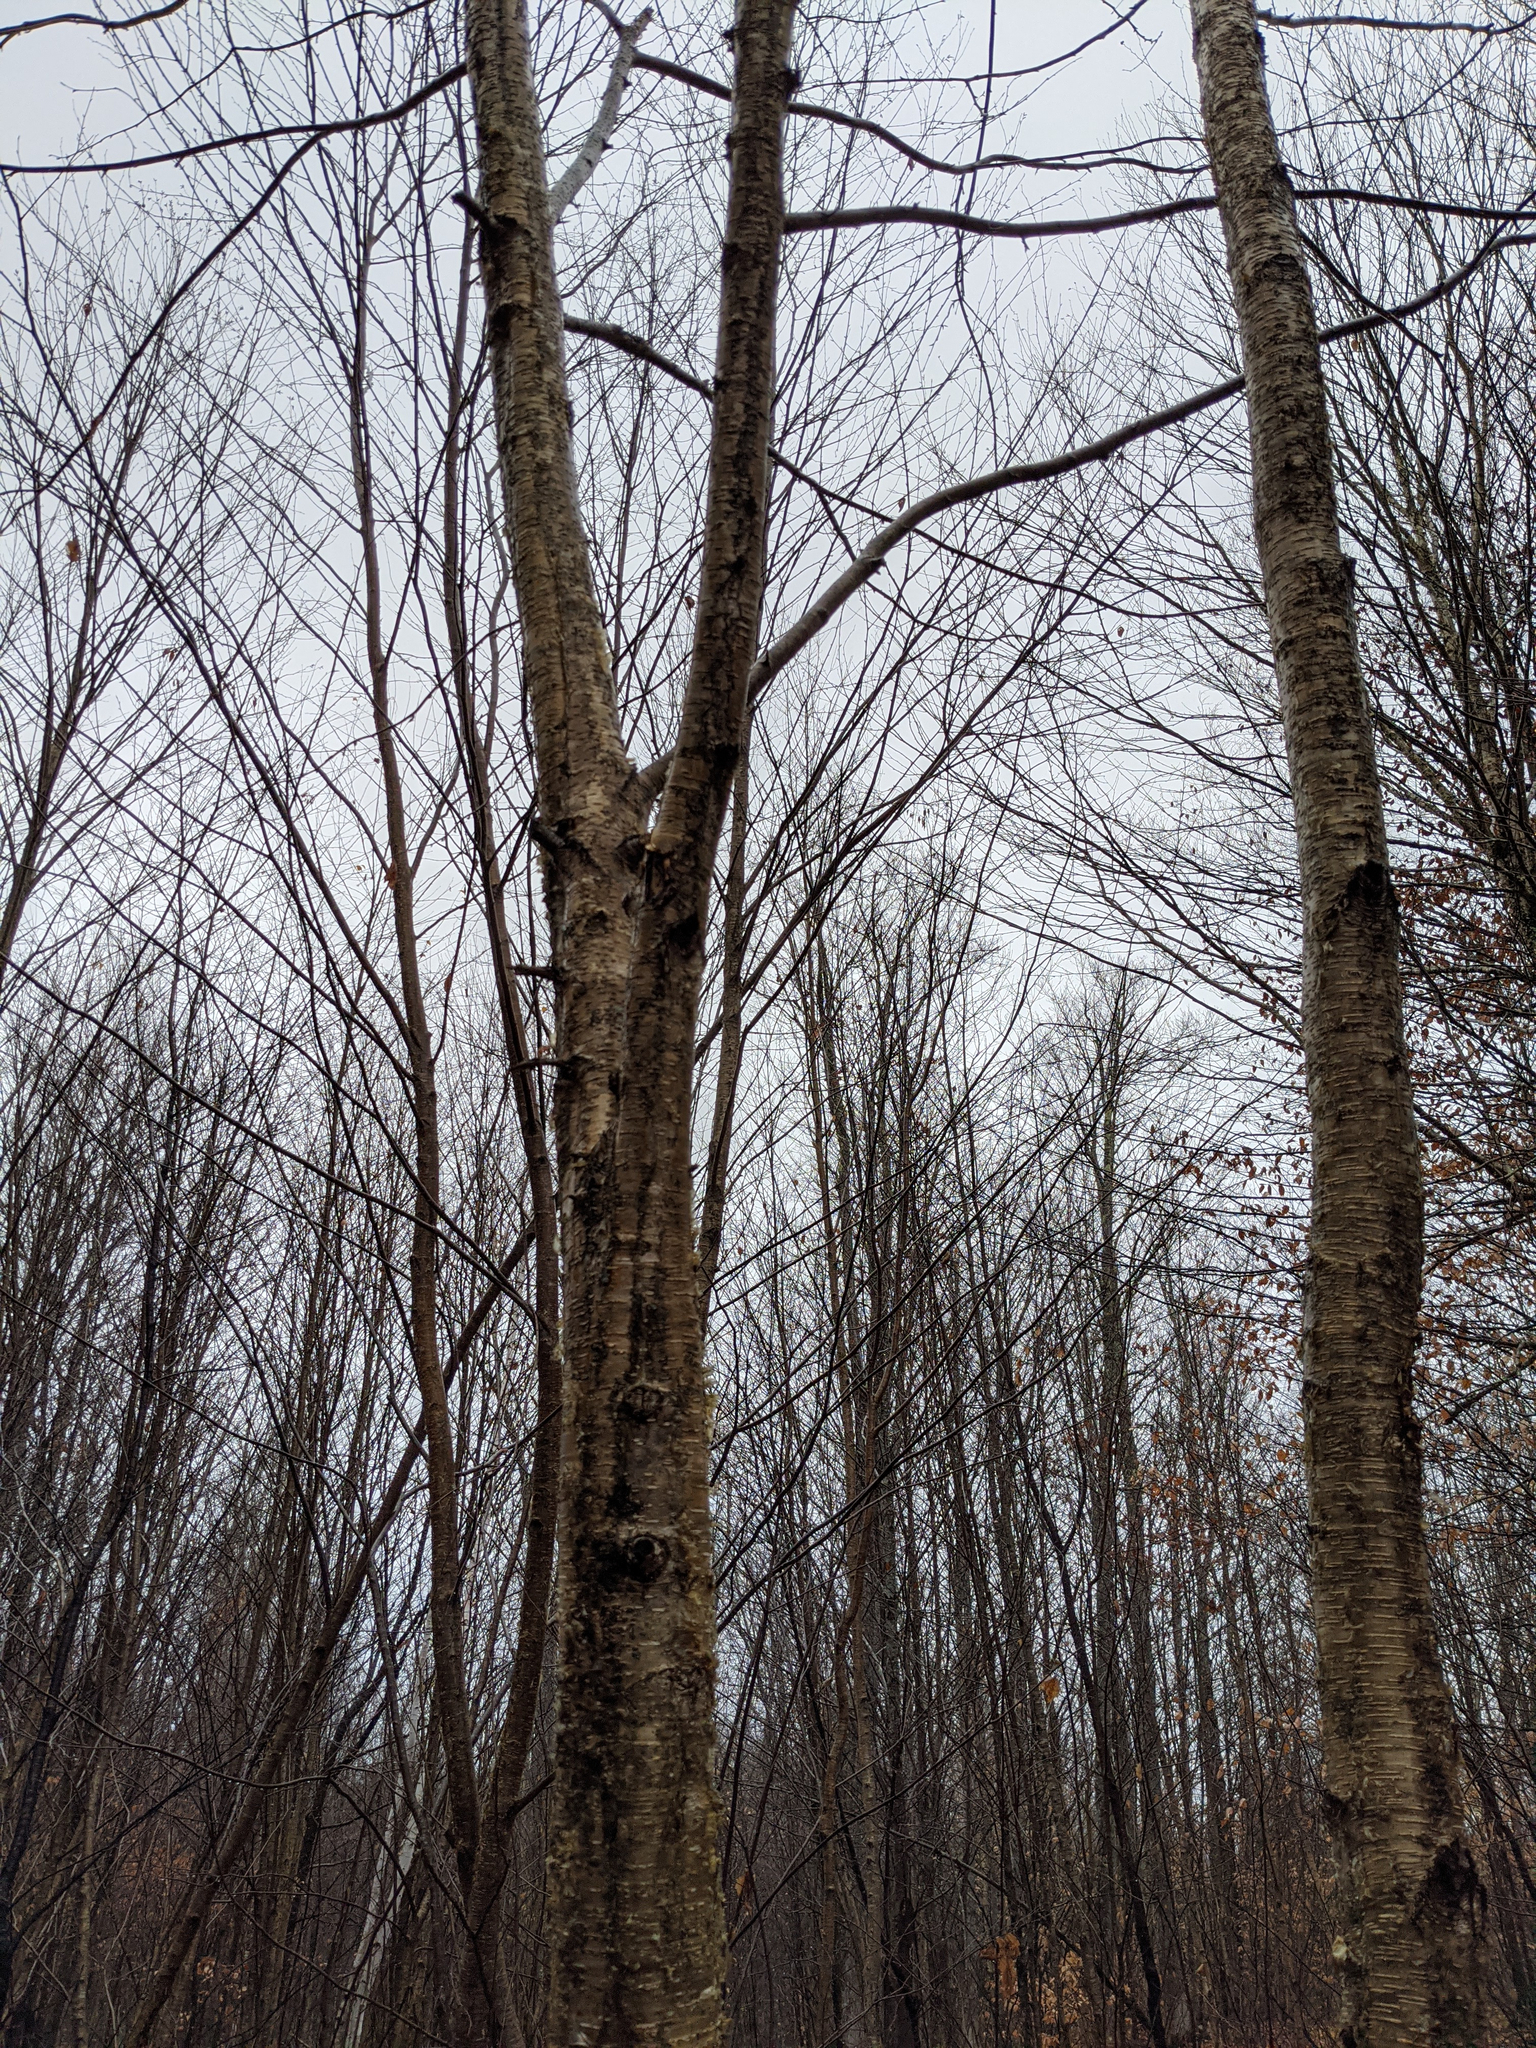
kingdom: Plantae
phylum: Tracheophyta
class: Magnoliopsida
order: Fagales
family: Betulaceae
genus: Betula
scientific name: Betula alleghaniensis
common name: Yellow birch
